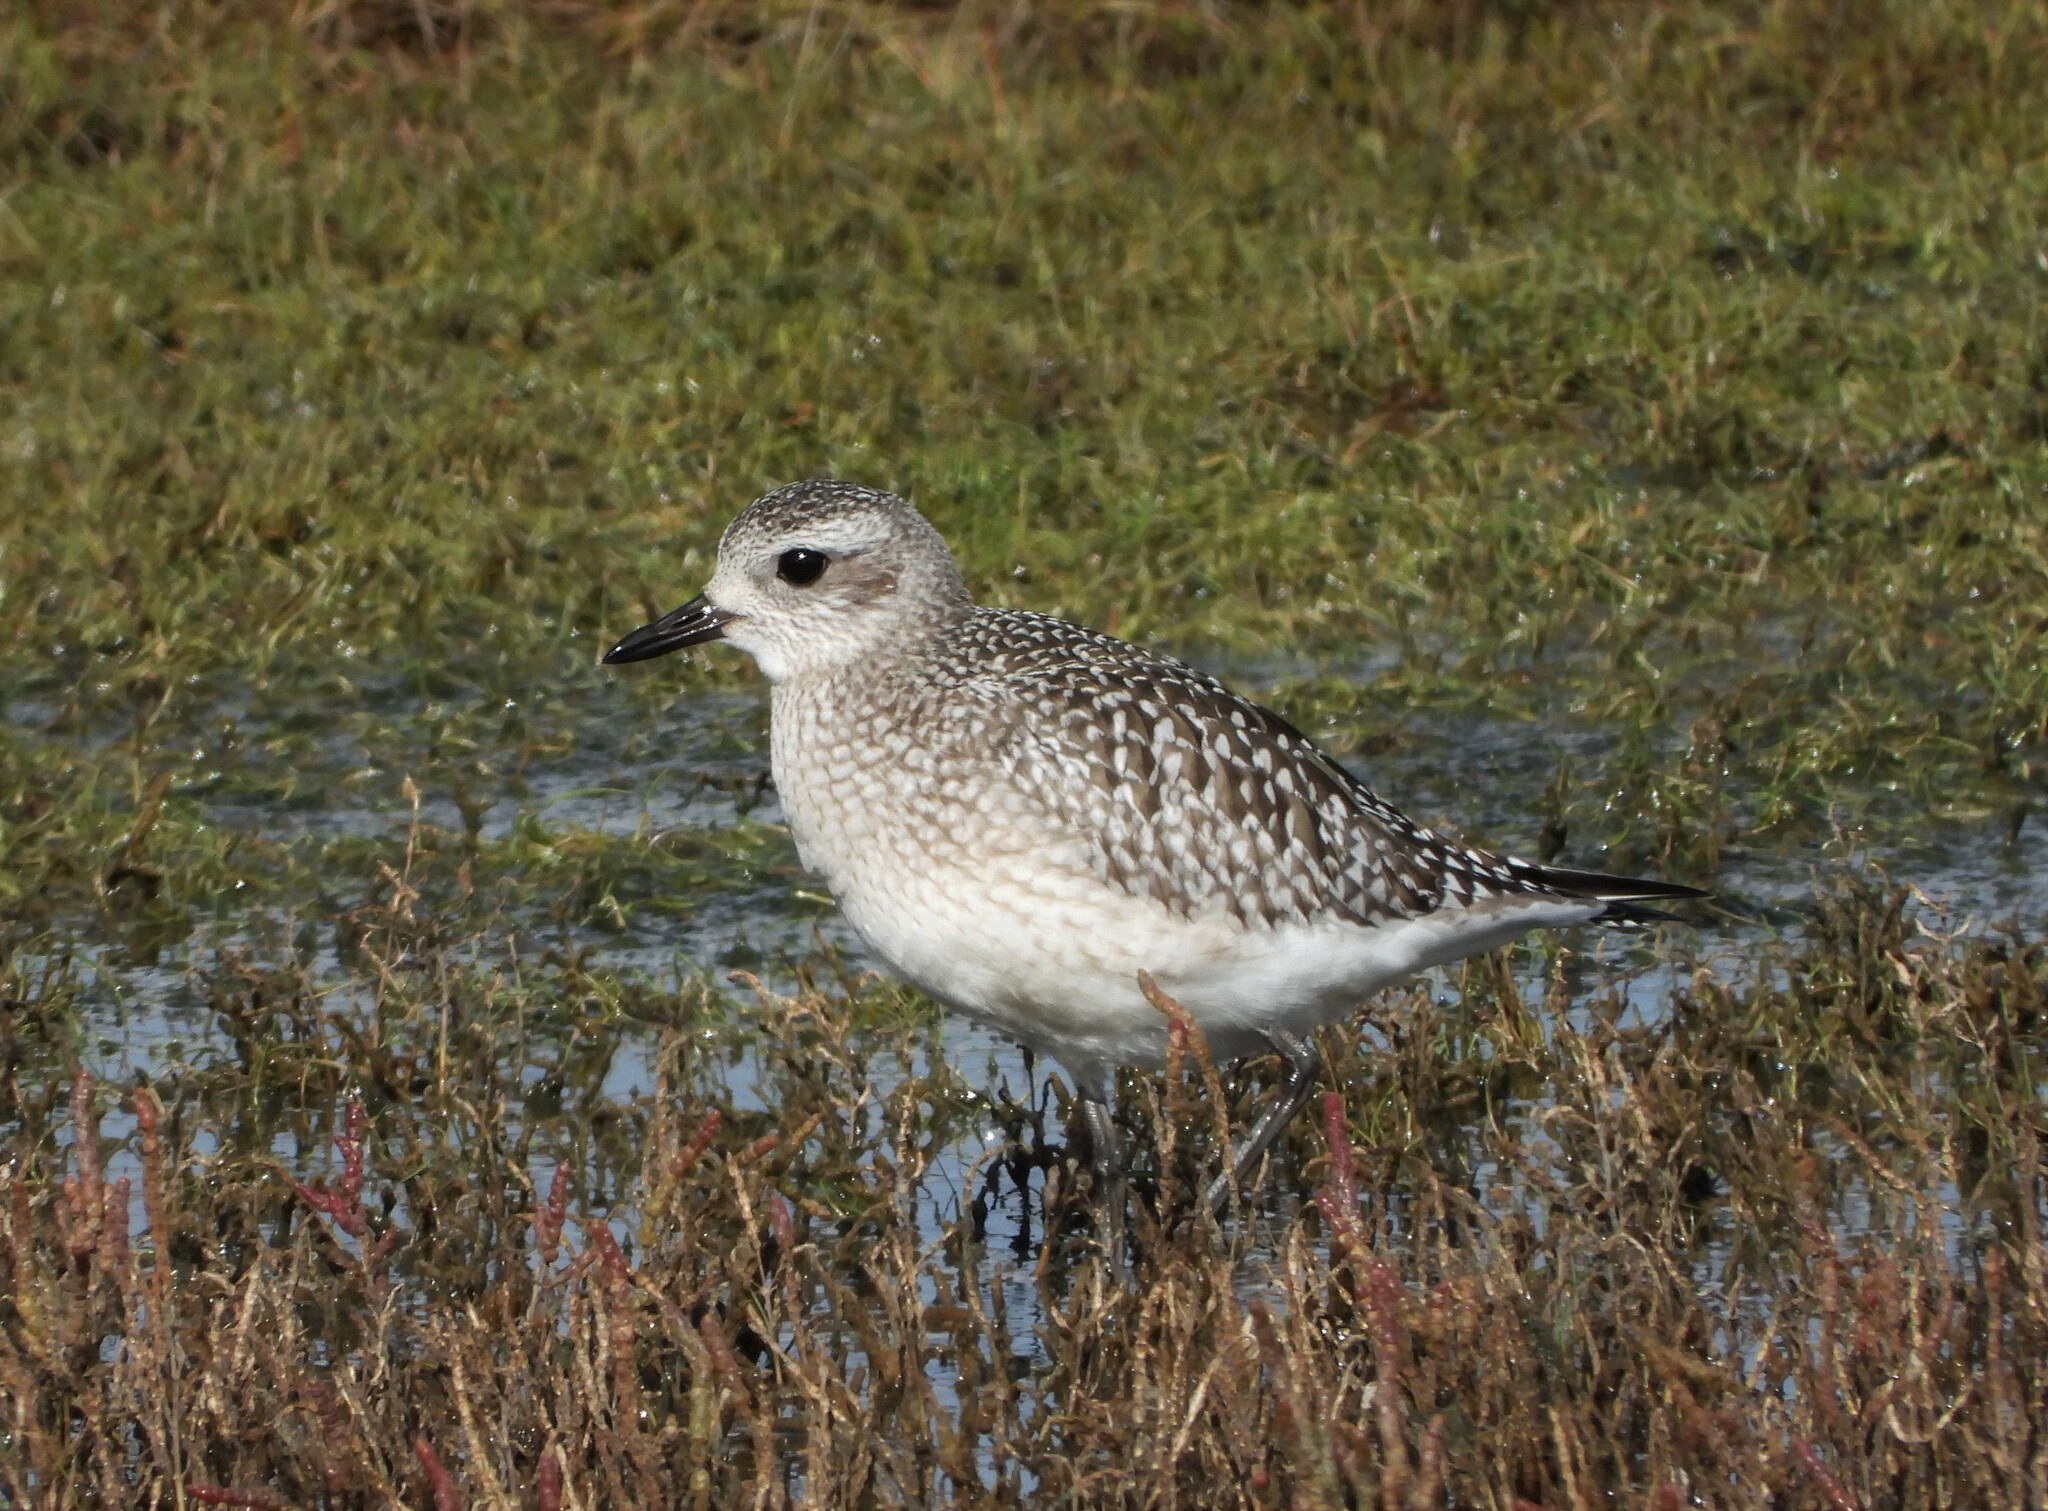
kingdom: Animalia
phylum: Chordata
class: Aves
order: Charadriiformes
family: Charadriidae
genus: Pluvialis
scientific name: Pluvialis squatarola
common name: Grey plover
